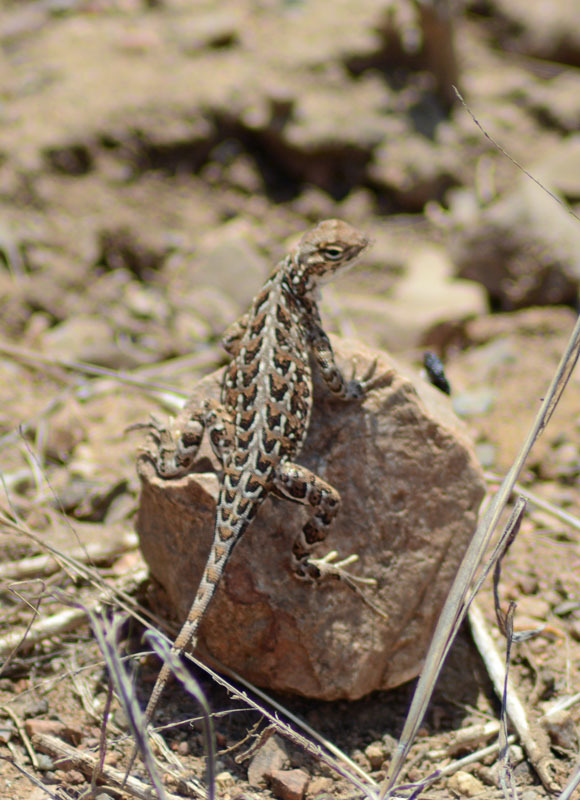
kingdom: Animalia
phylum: Chordata
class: Squamata
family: Phrynosomatidae
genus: Holbrookia
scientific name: Holbrookia elegans
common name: Elegant earless lizard
